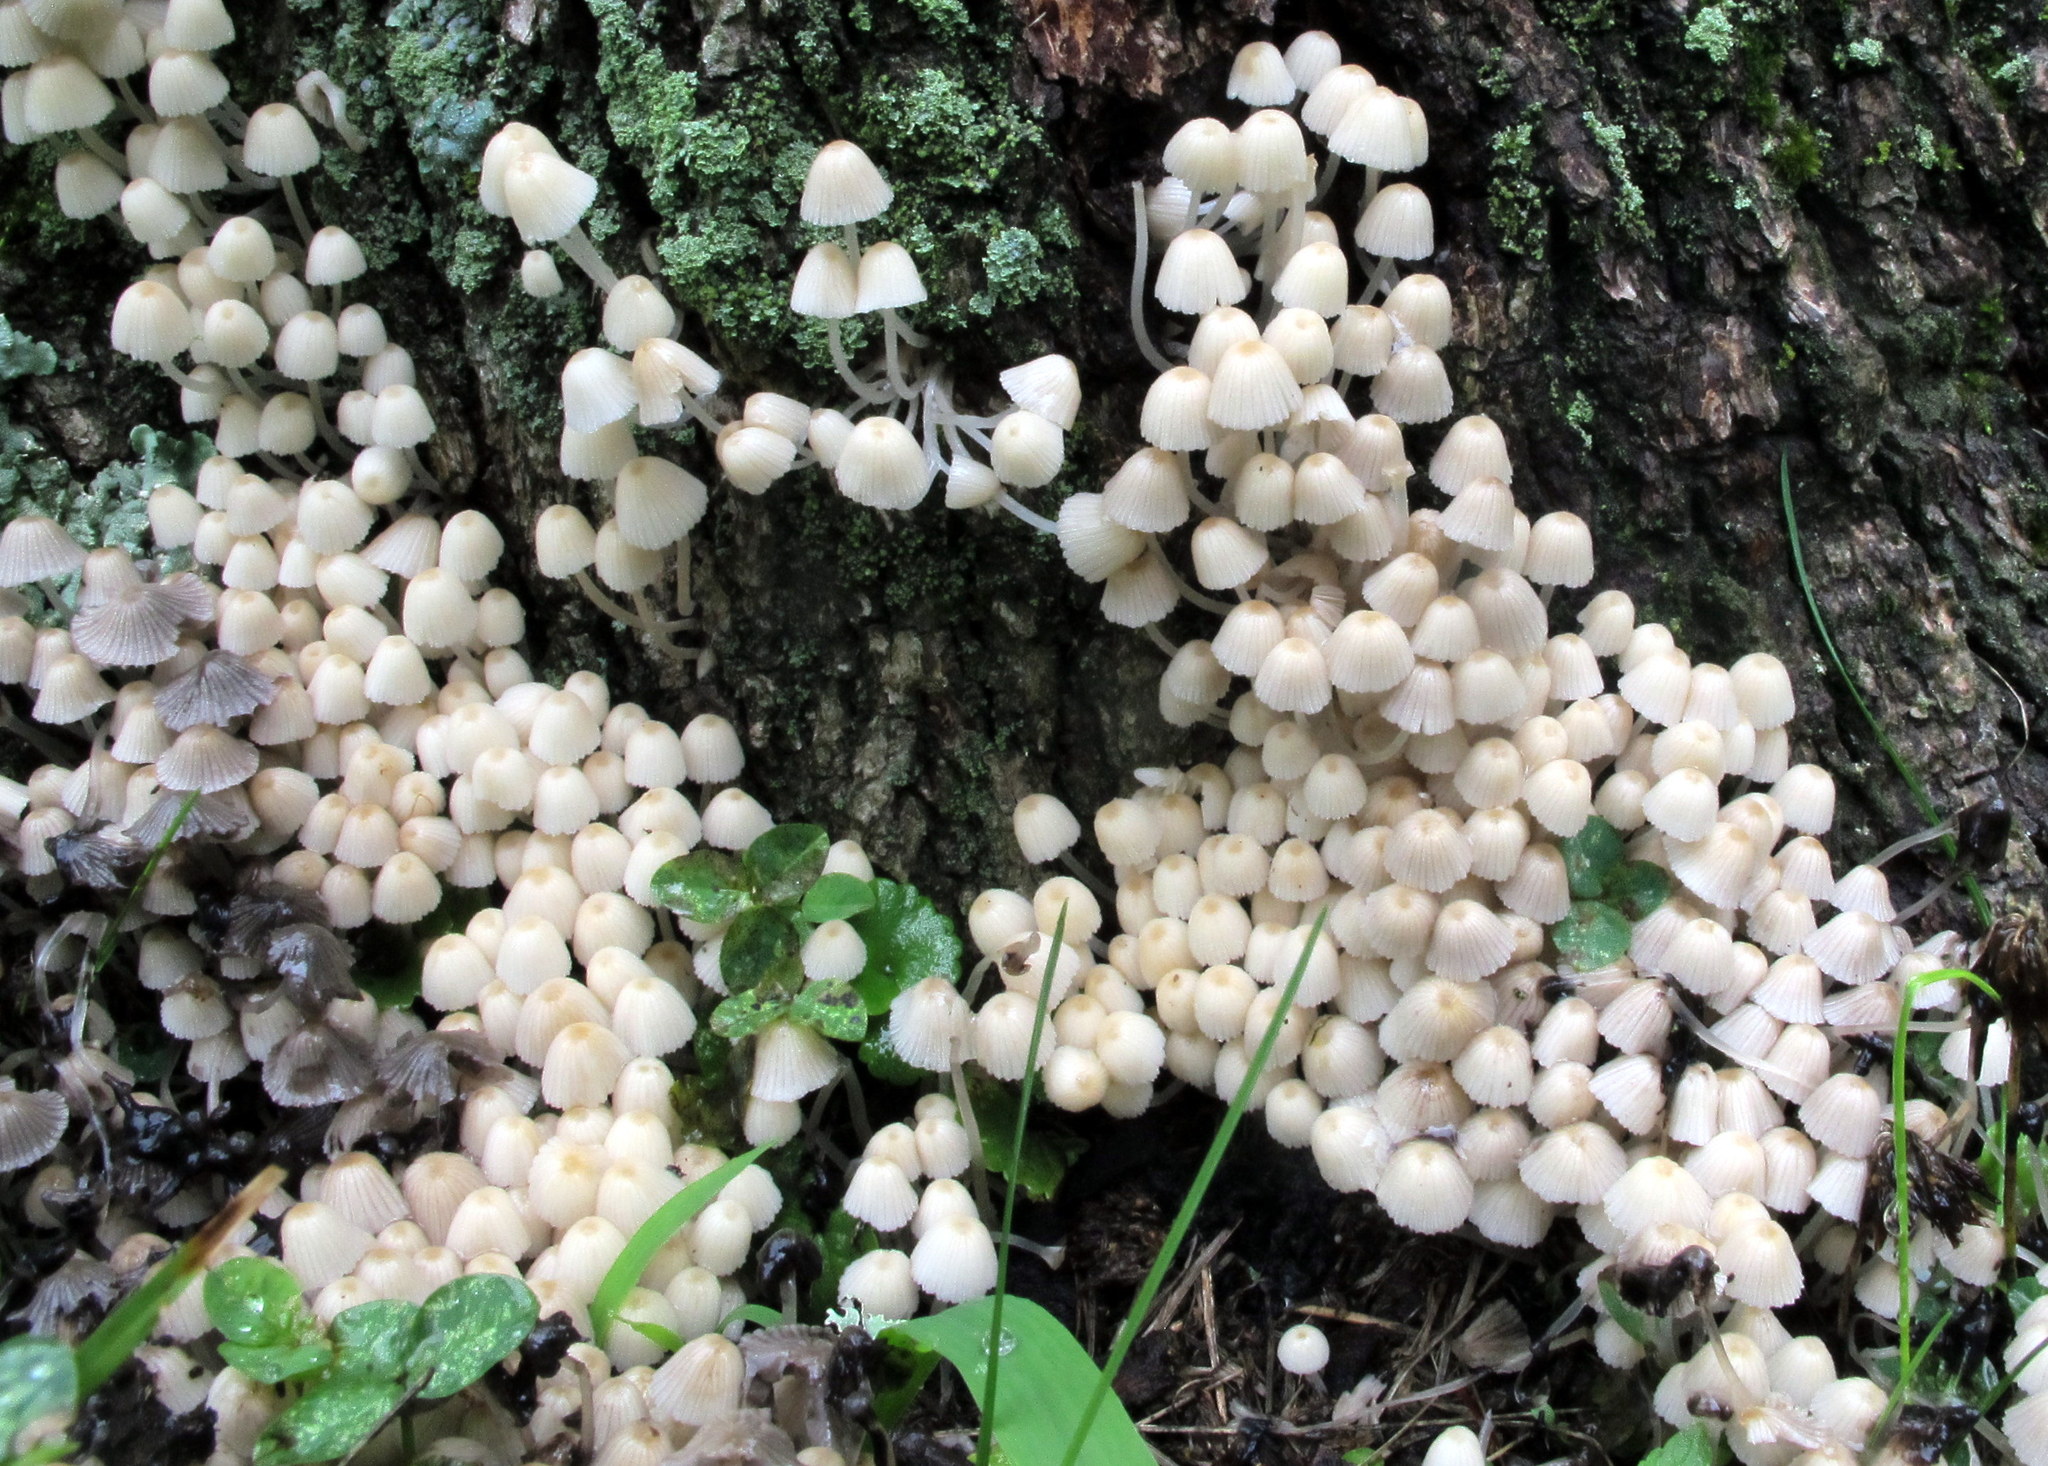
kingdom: Fungi
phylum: Basidiomycota
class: Agaricomycetes
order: Agaricales
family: Psathyrellaceae
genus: Coprinellus
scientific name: Coprinellus disseminatus
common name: Fairies' bonnets
